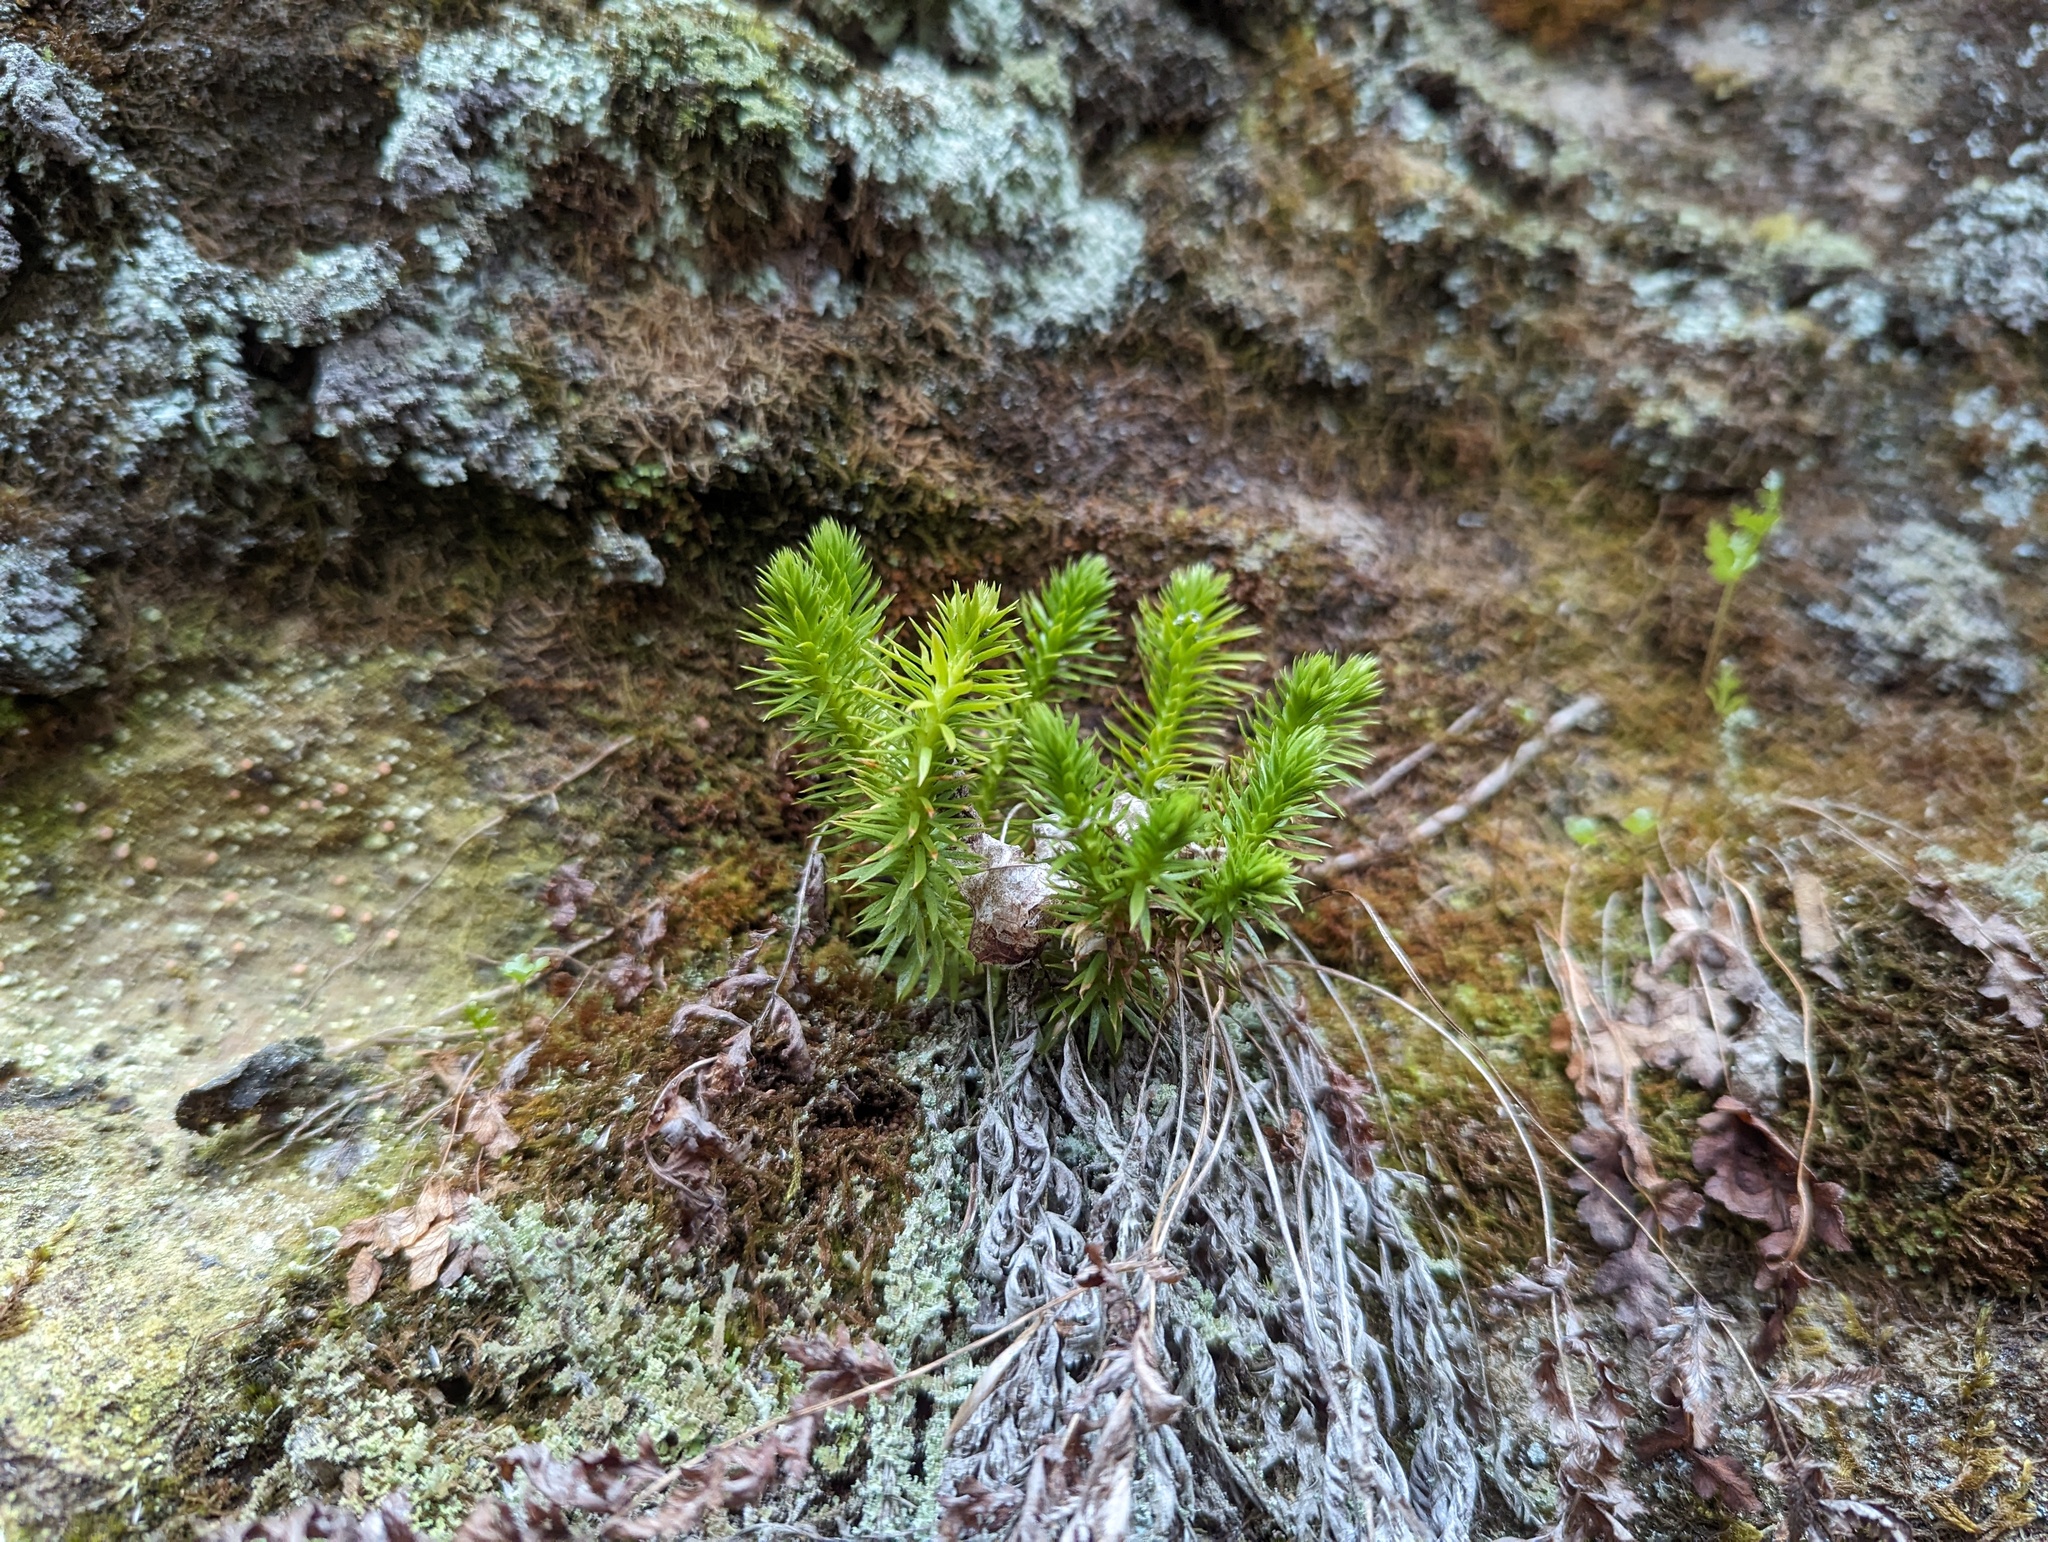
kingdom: Plantae
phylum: Tracheophyta
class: Lycopodiopsida
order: Lycopodiales
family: Lycopodiaceae
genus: Huperzia
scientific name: Huperzia porophila
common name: Rock clubmoss
